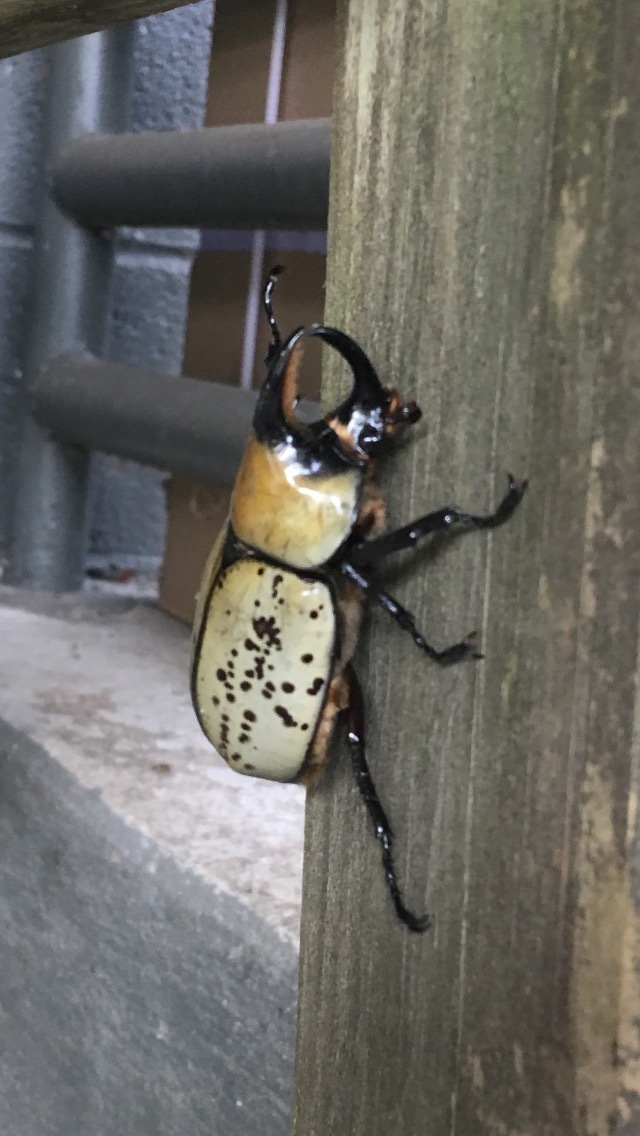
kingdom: Animalia
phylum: Arthropoda
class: Insecta
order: Coleoptera
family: Scarabaeidae
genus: Dynastes
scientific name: Dynastes tityus
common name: Eastern hercules beetle
